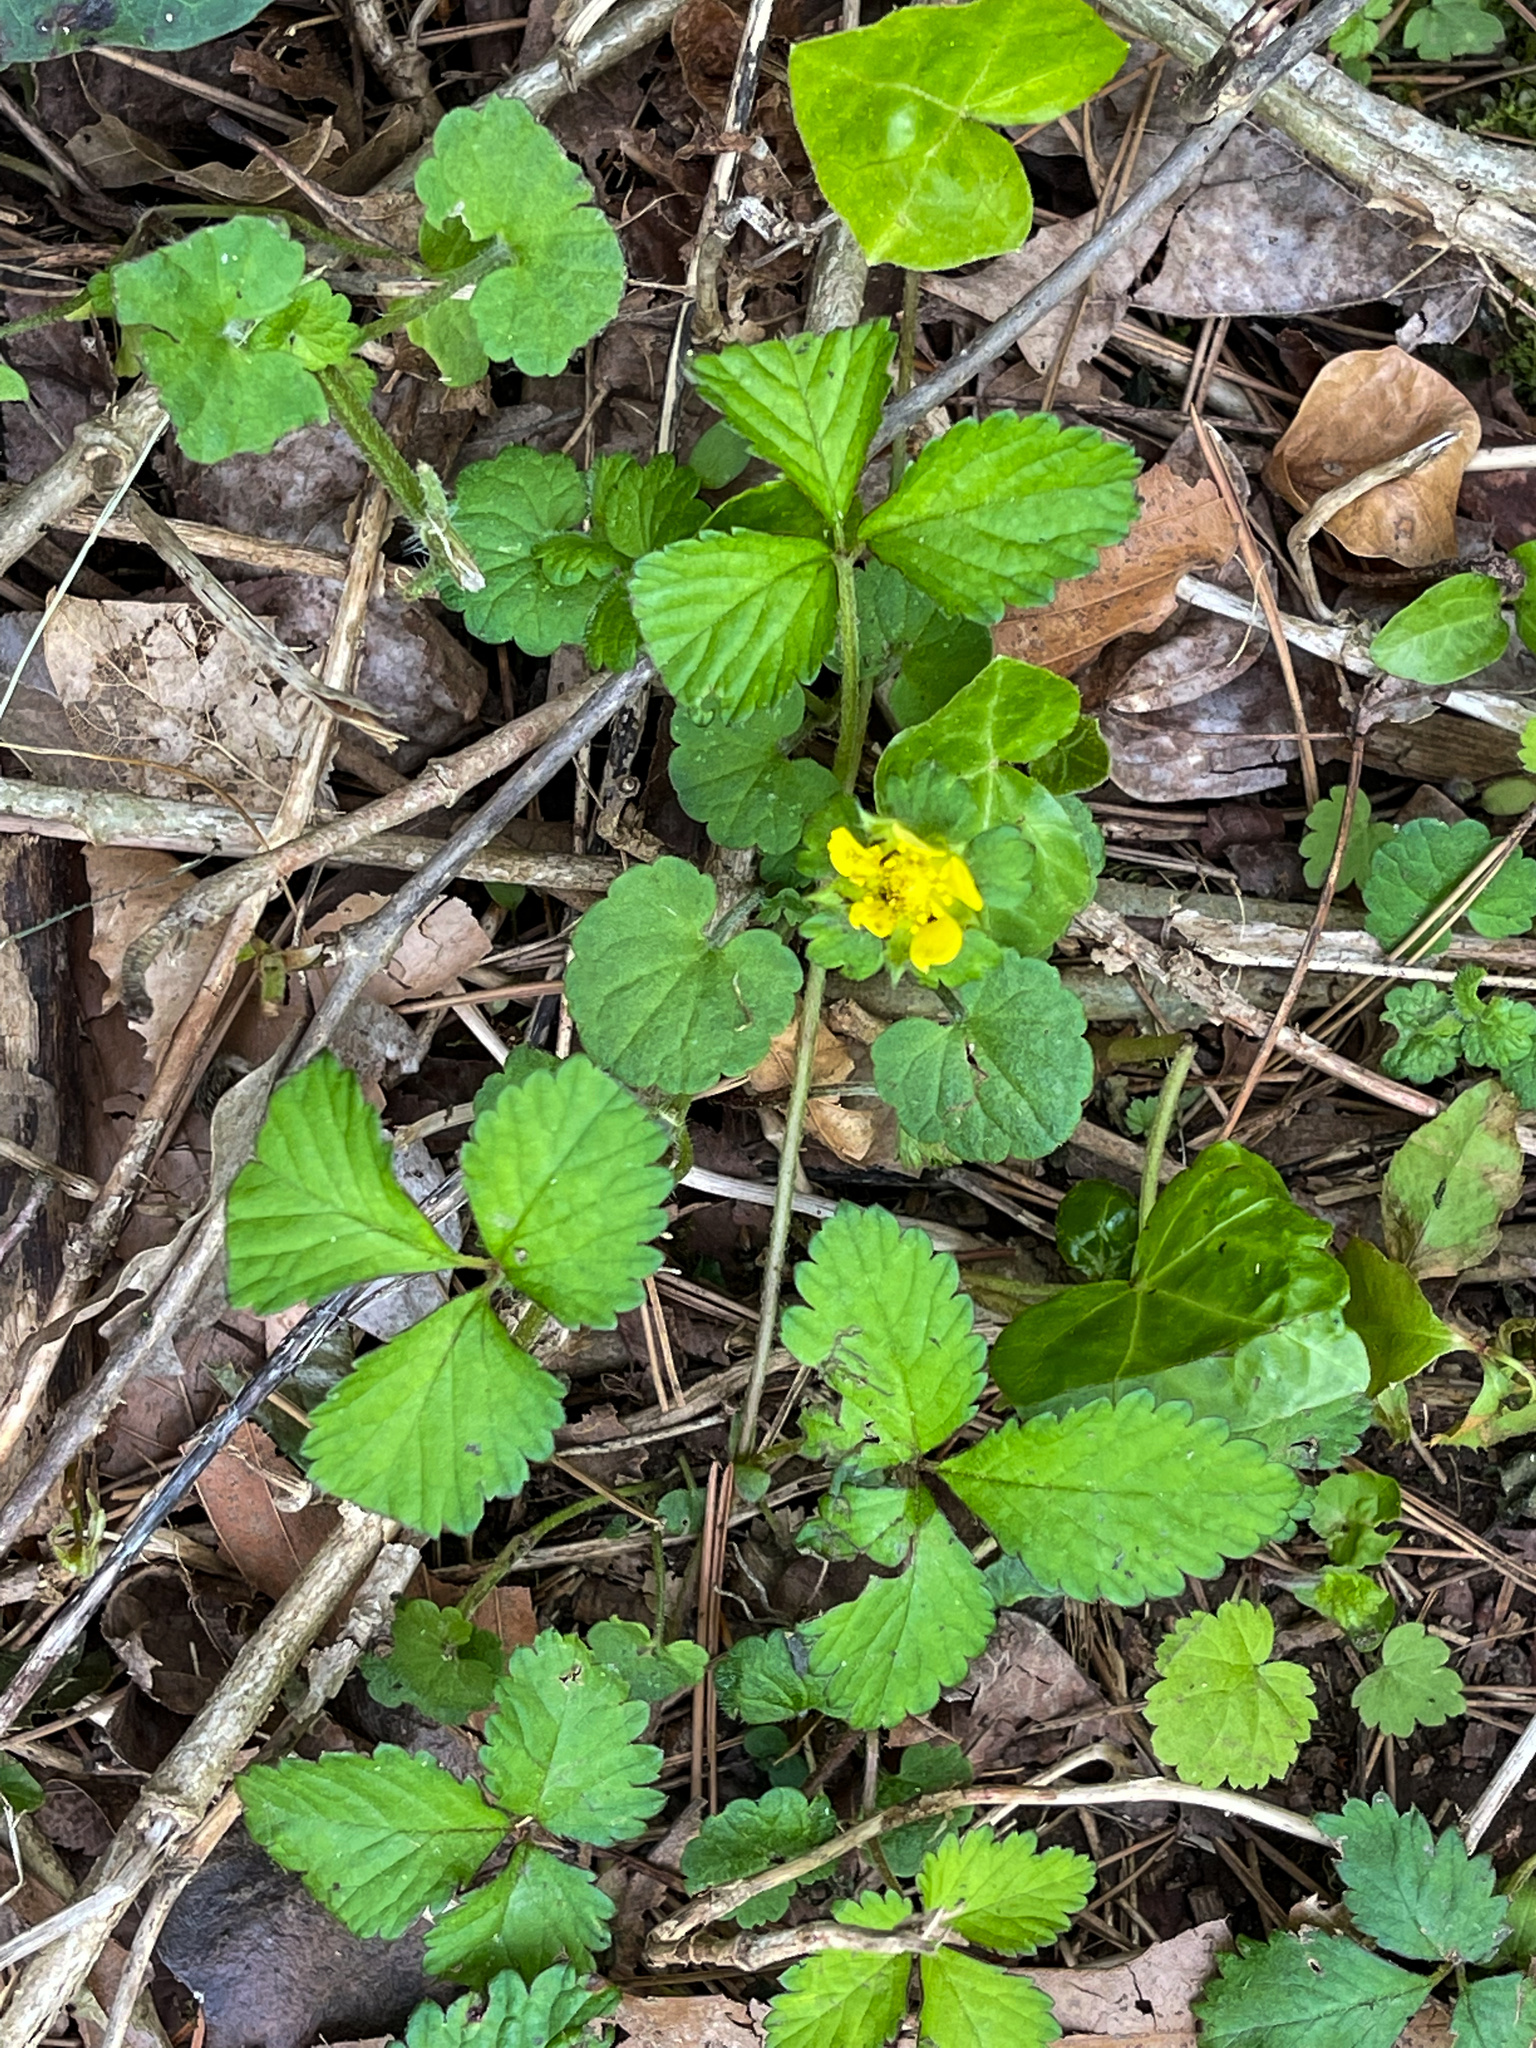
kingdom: Plantae
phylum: Tracheophyta
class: Magnoliopsida
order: Rosales
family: Rosaceae
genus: Potentilla
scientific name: Potentilla indica
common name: Yellow-flowered strawberry
